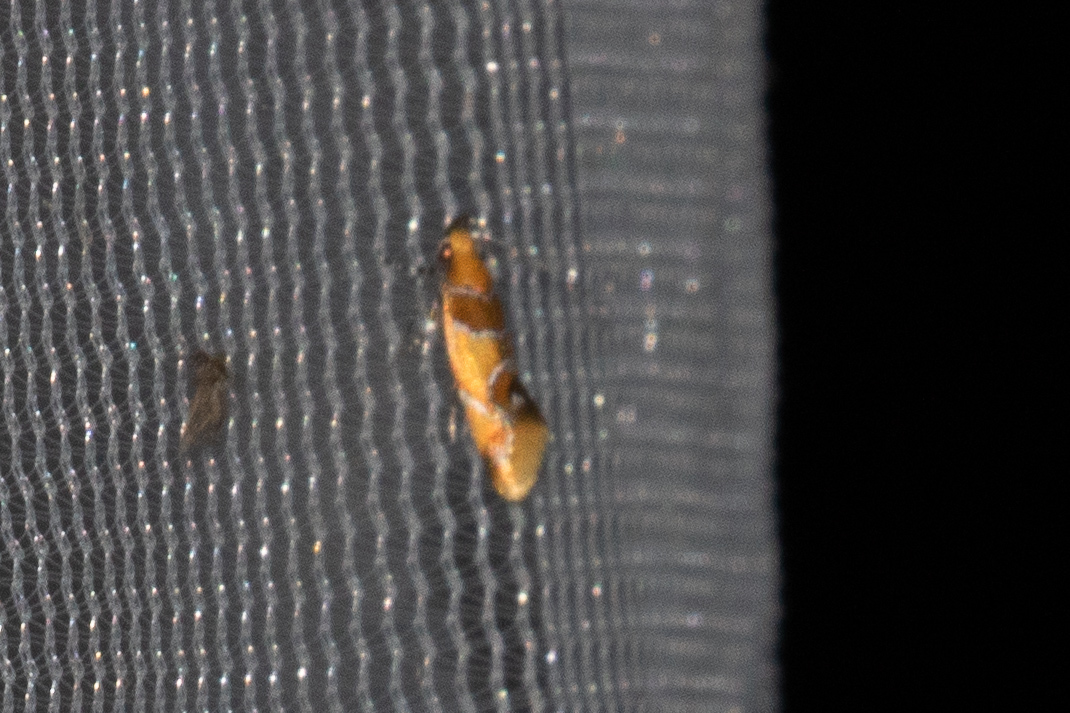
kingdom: Animalia
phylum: Arthropoda
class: Insecta
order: Lepidoptera
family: Oecophoridae
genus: Callima
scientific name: Callima argenticinctella
